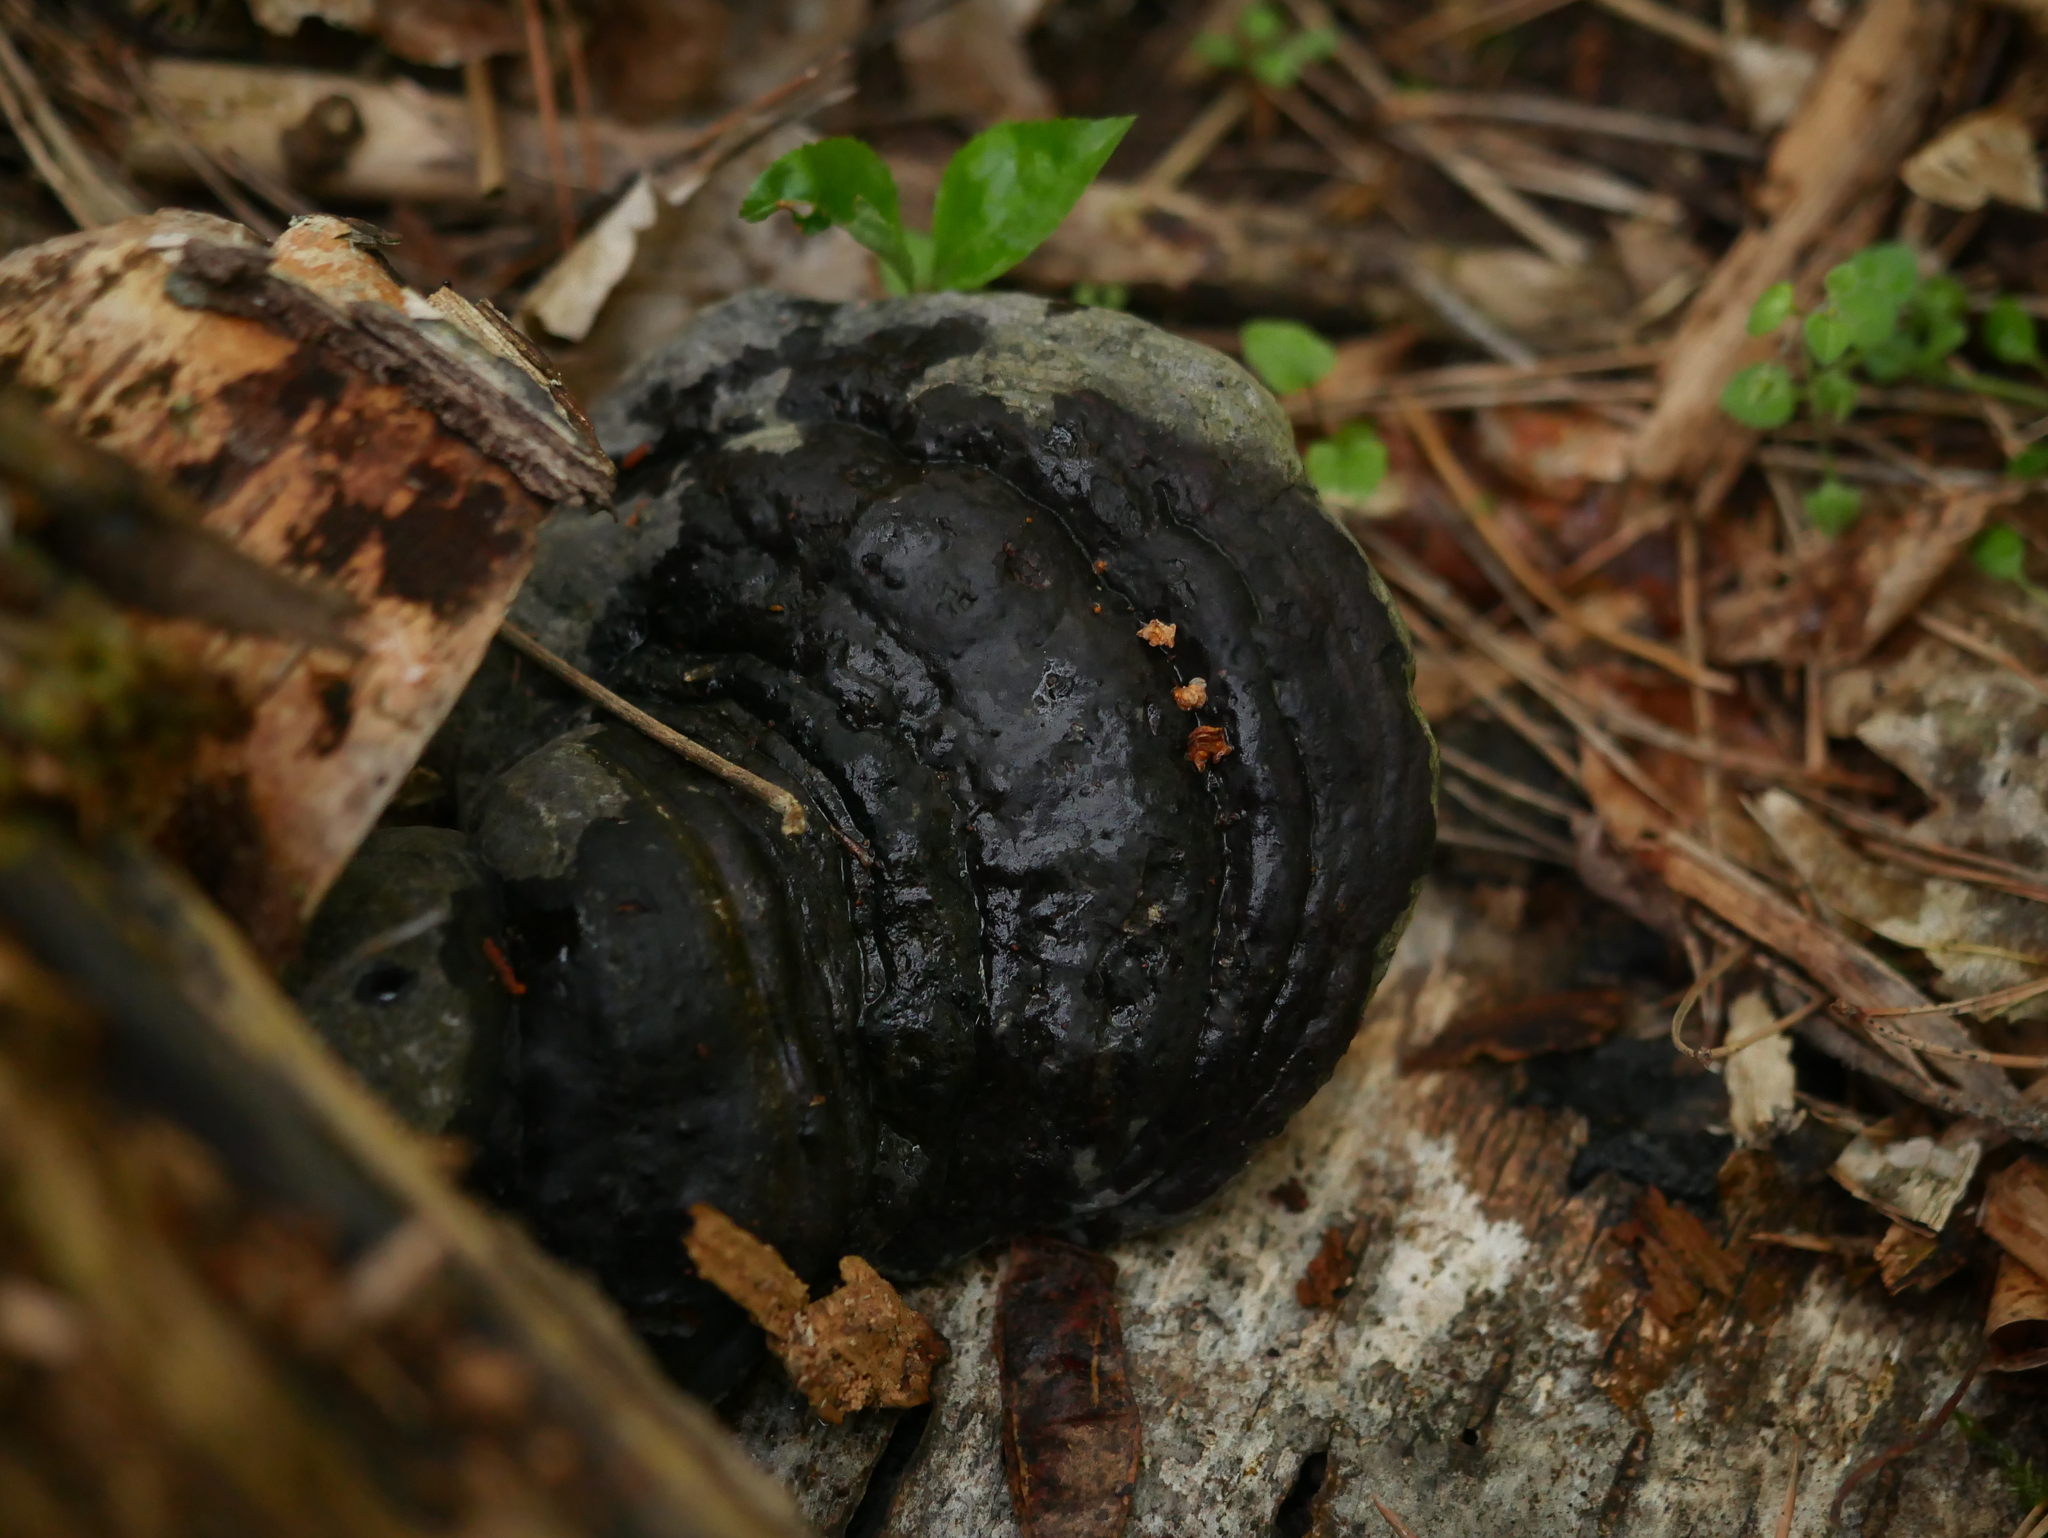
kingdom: Fungi
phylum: Basidiomycota
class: Agaricomycetes
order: Polyporales
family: Polyporaceae
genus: Fomes
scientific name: Fomes fomentarius
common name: Hoof fungus
